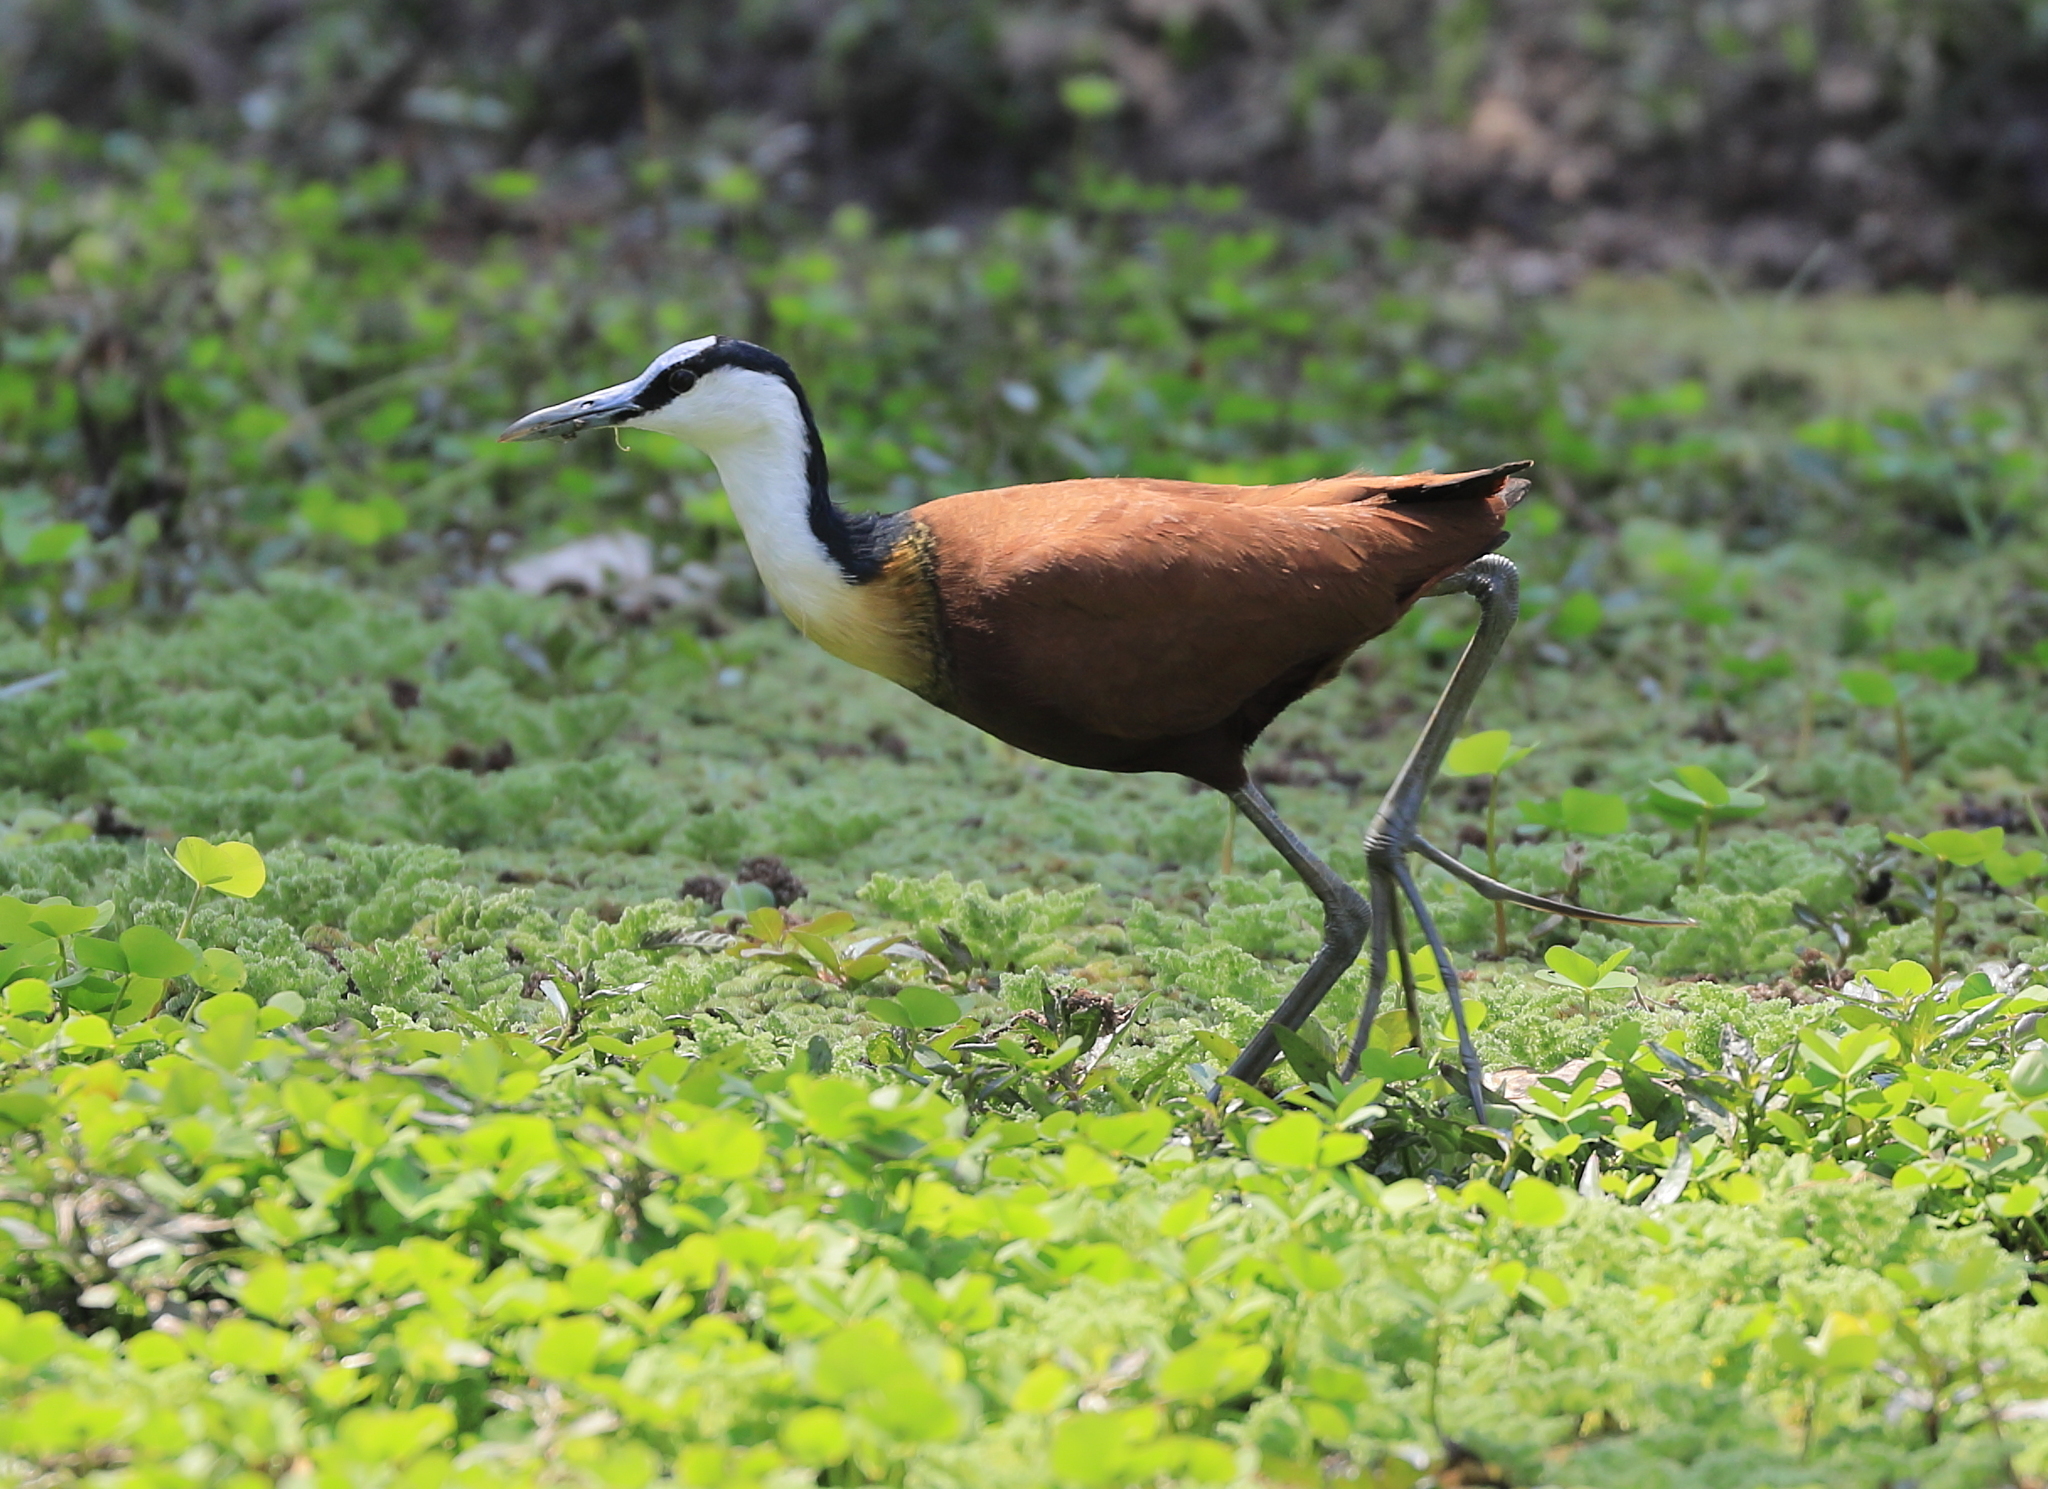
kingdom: Animalia
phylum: Chordata
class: Aves
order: Charadriiformes
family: Jacanidae
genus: Actophilornis
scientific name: Actophilornis africanus
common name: African jacana
